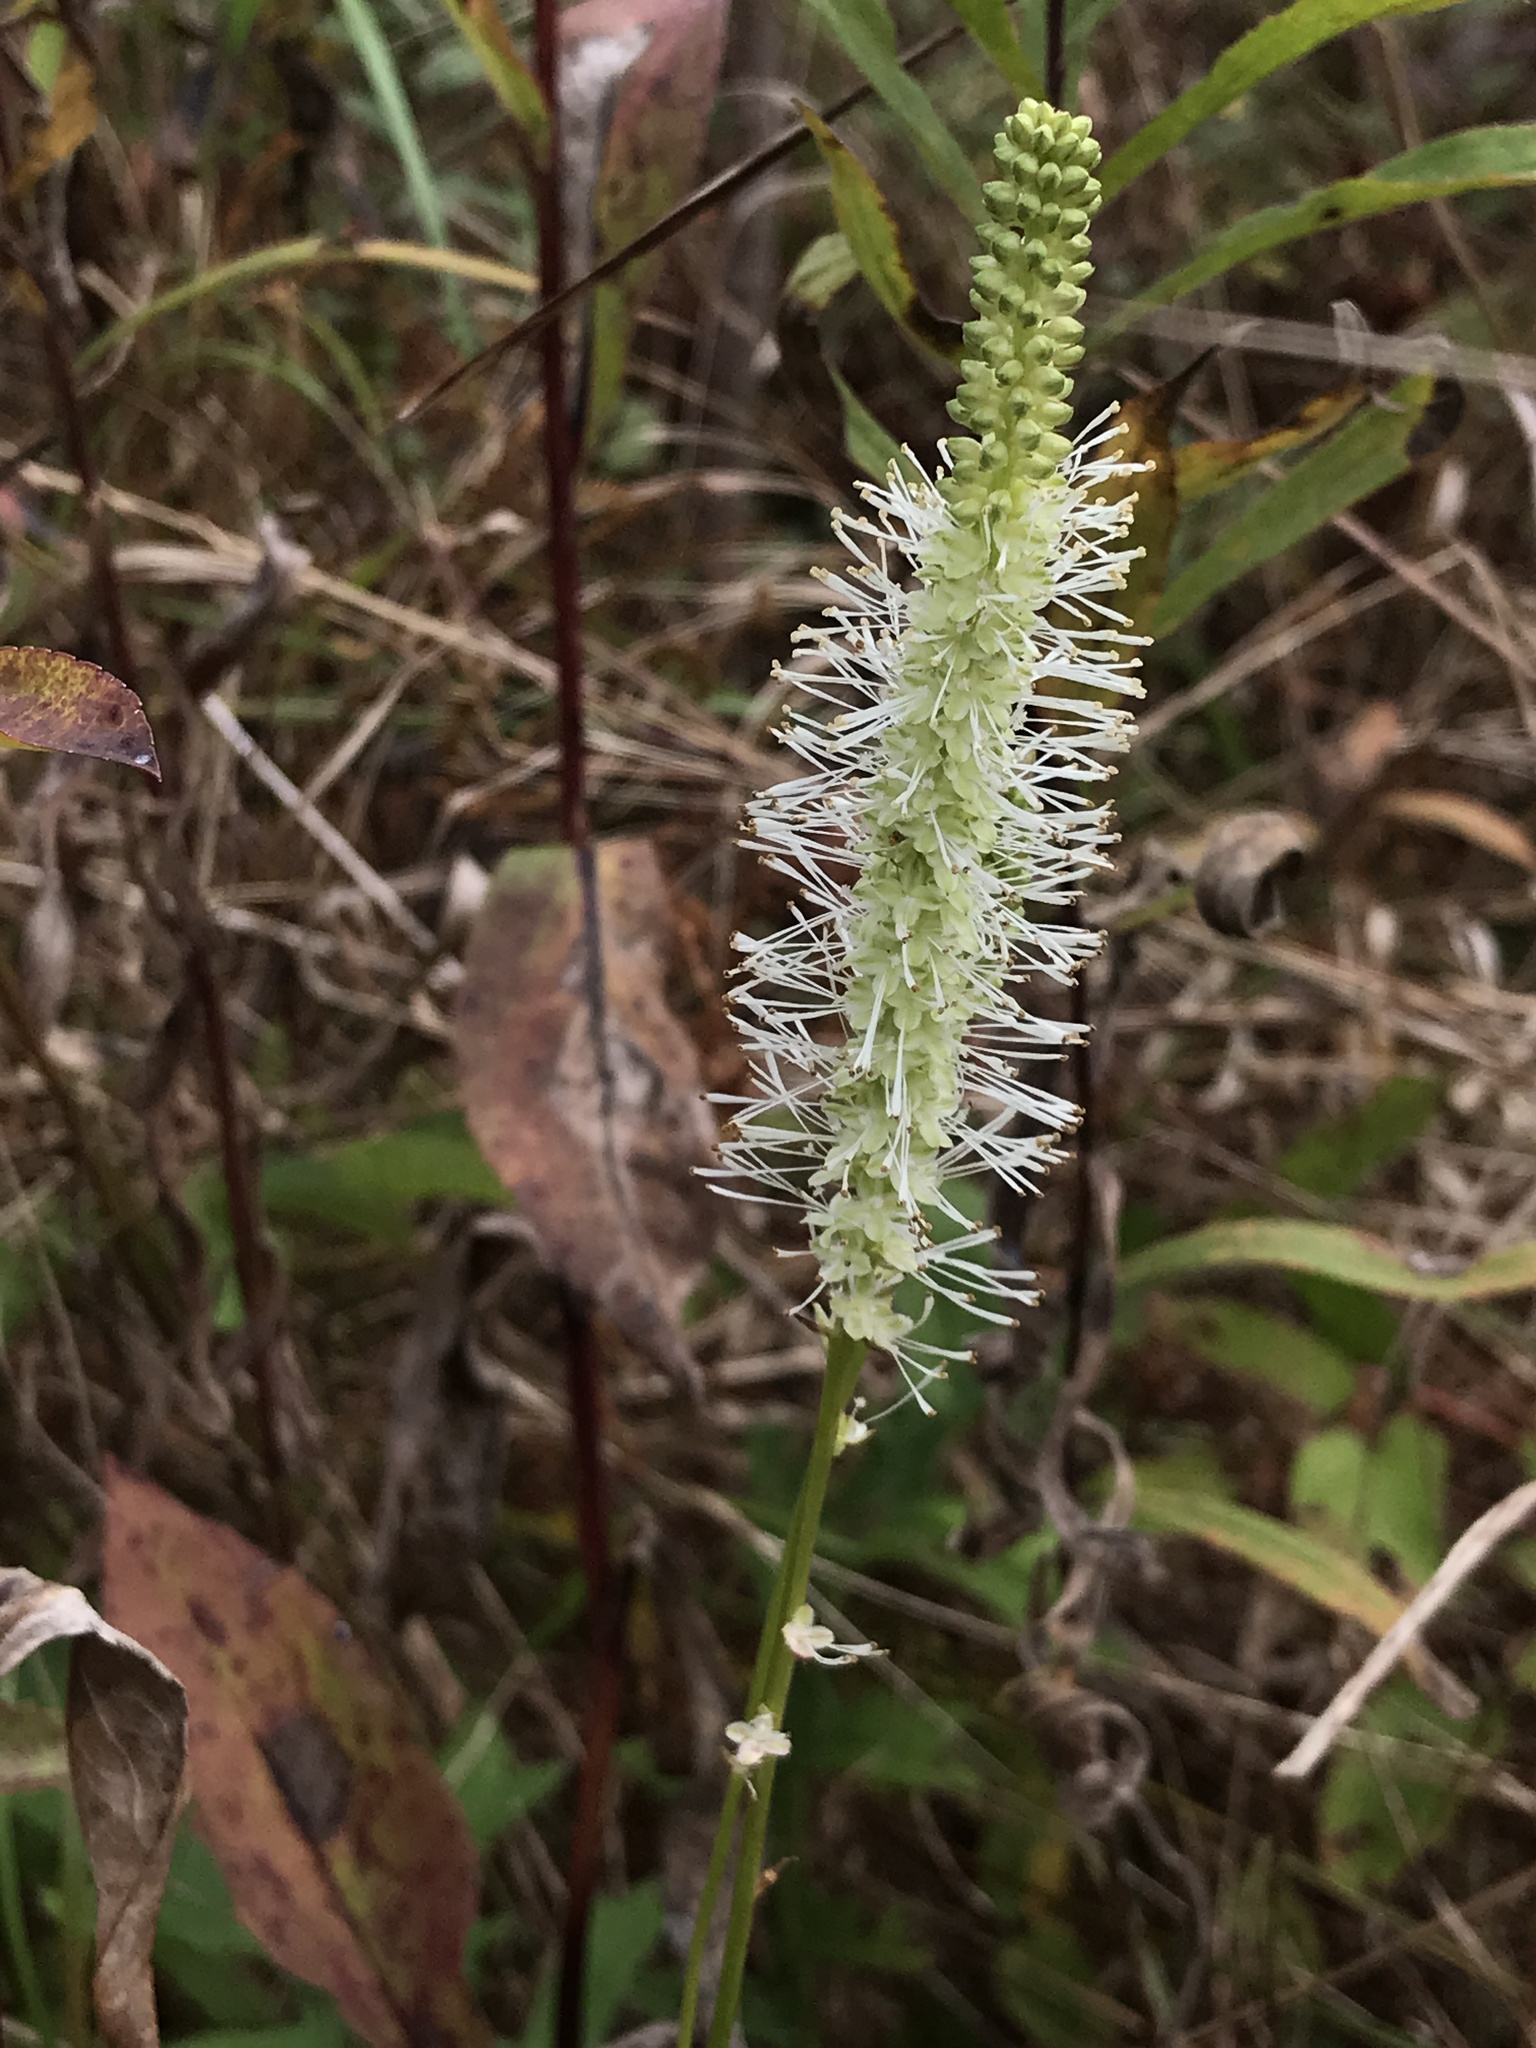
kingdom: Plantae
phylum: Tracheophyta
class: Magnoliopsida
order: Rosales
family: Rosaceae
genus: Sanguisorba
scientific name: Sanguisorba canadensis
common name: White burnet
